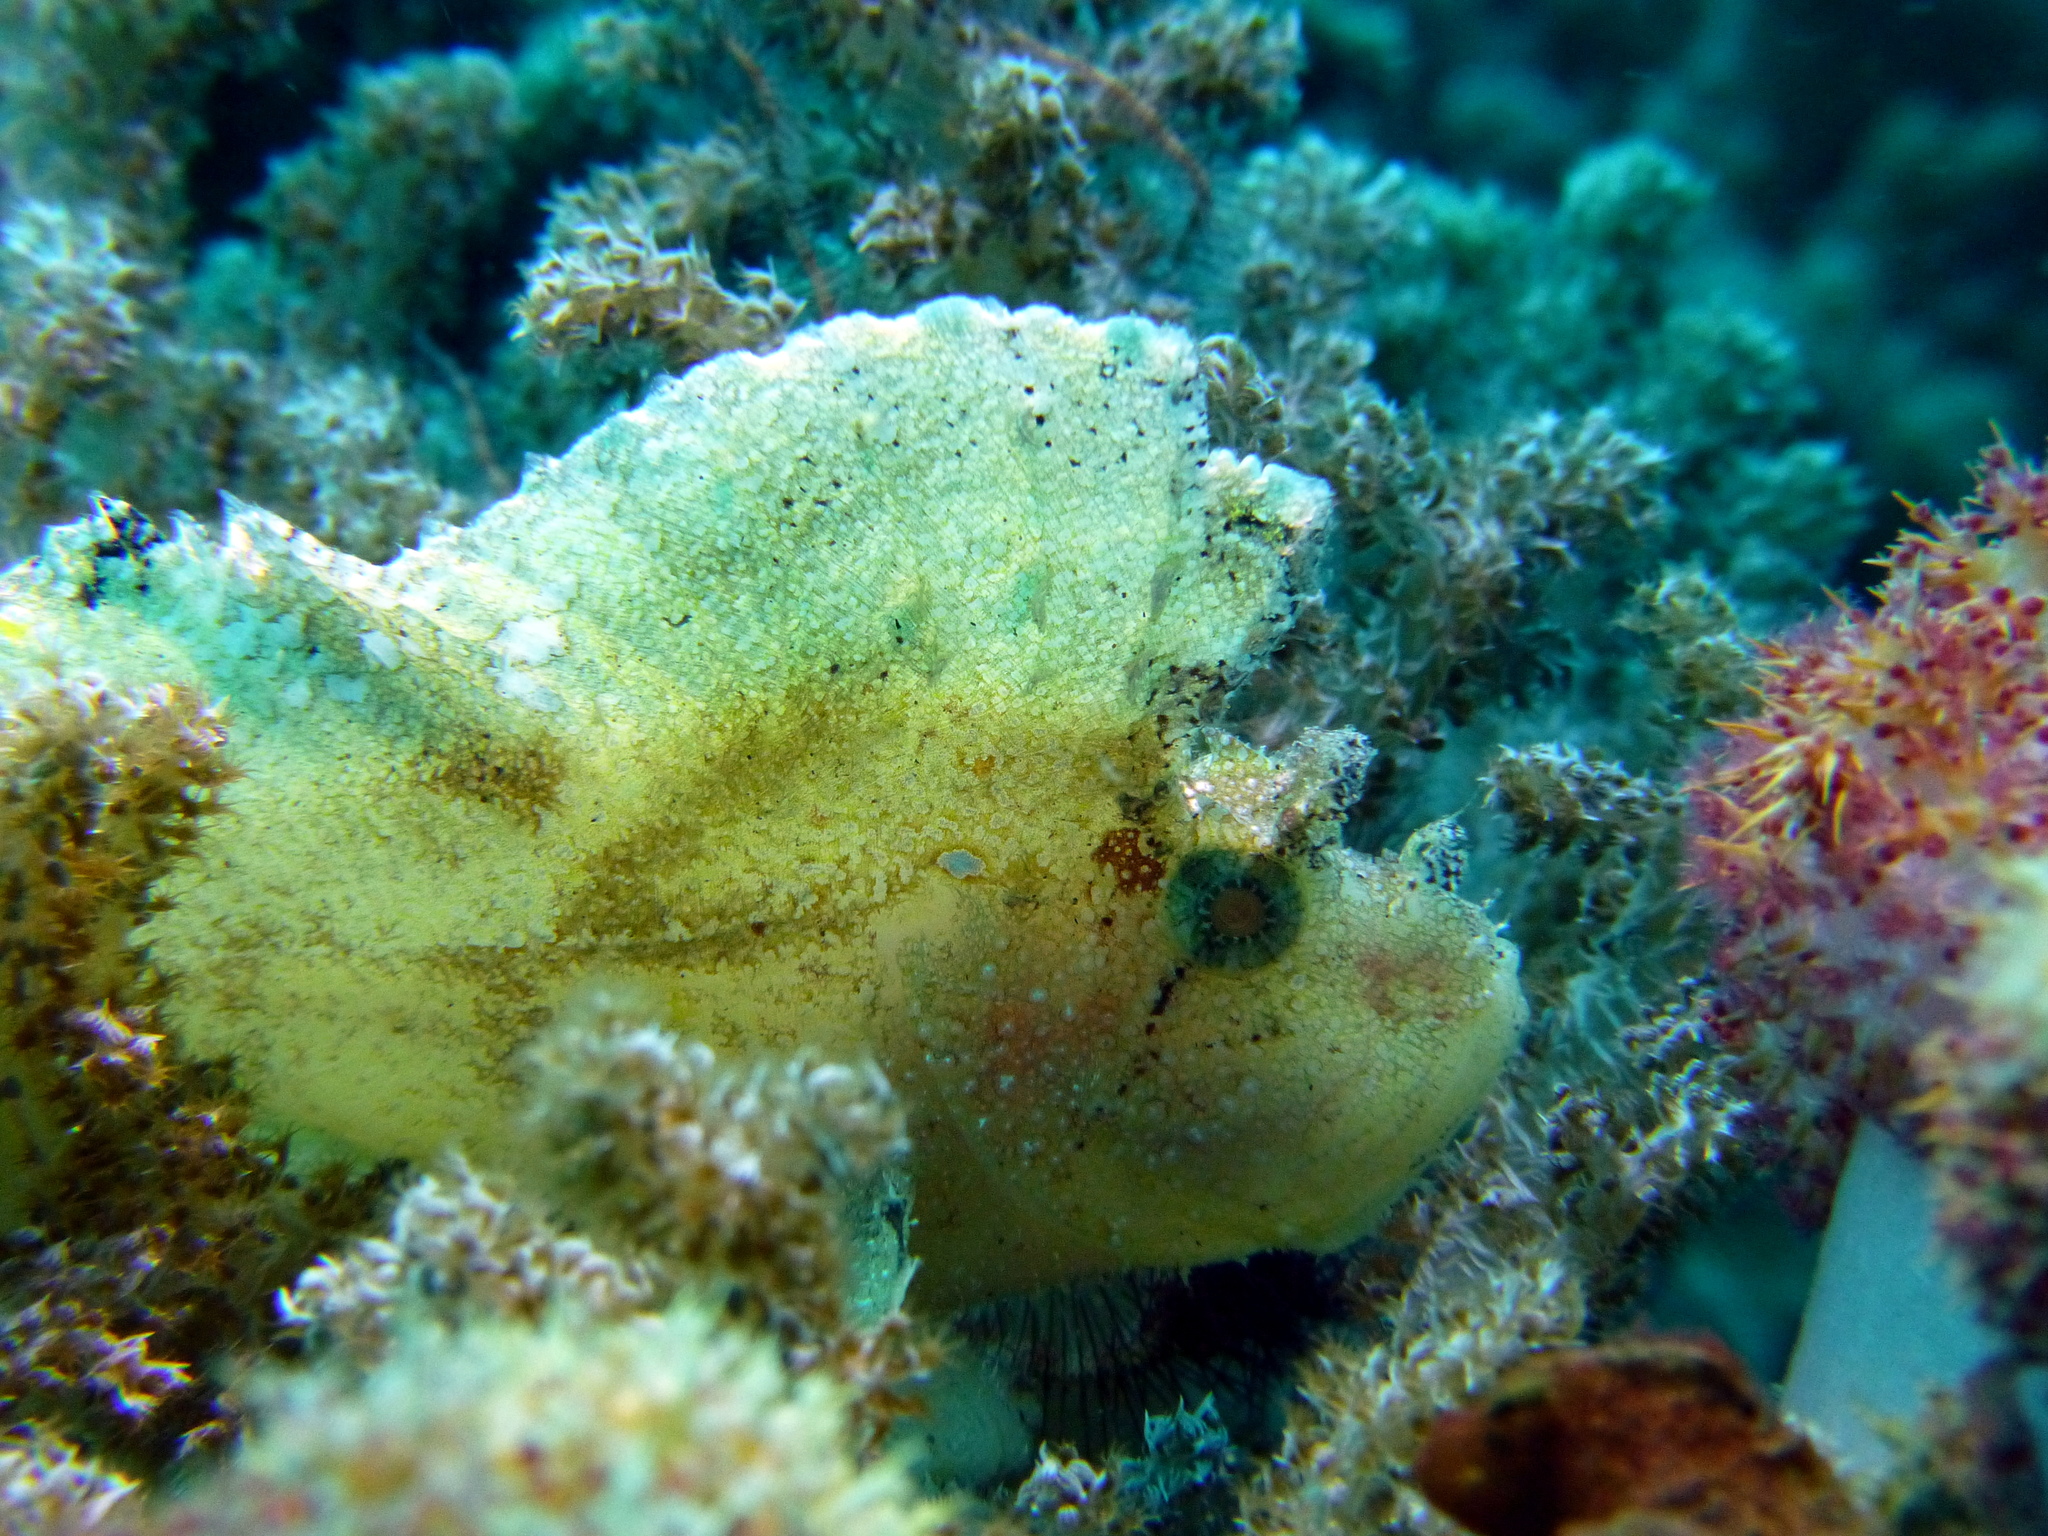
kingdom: Animalia
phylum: Chordata
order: Scorpaeniformes
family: Scorpaenidae
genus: Taenianotus
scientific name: Taenianotus triacanthus
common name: Leaf scorpionfish
